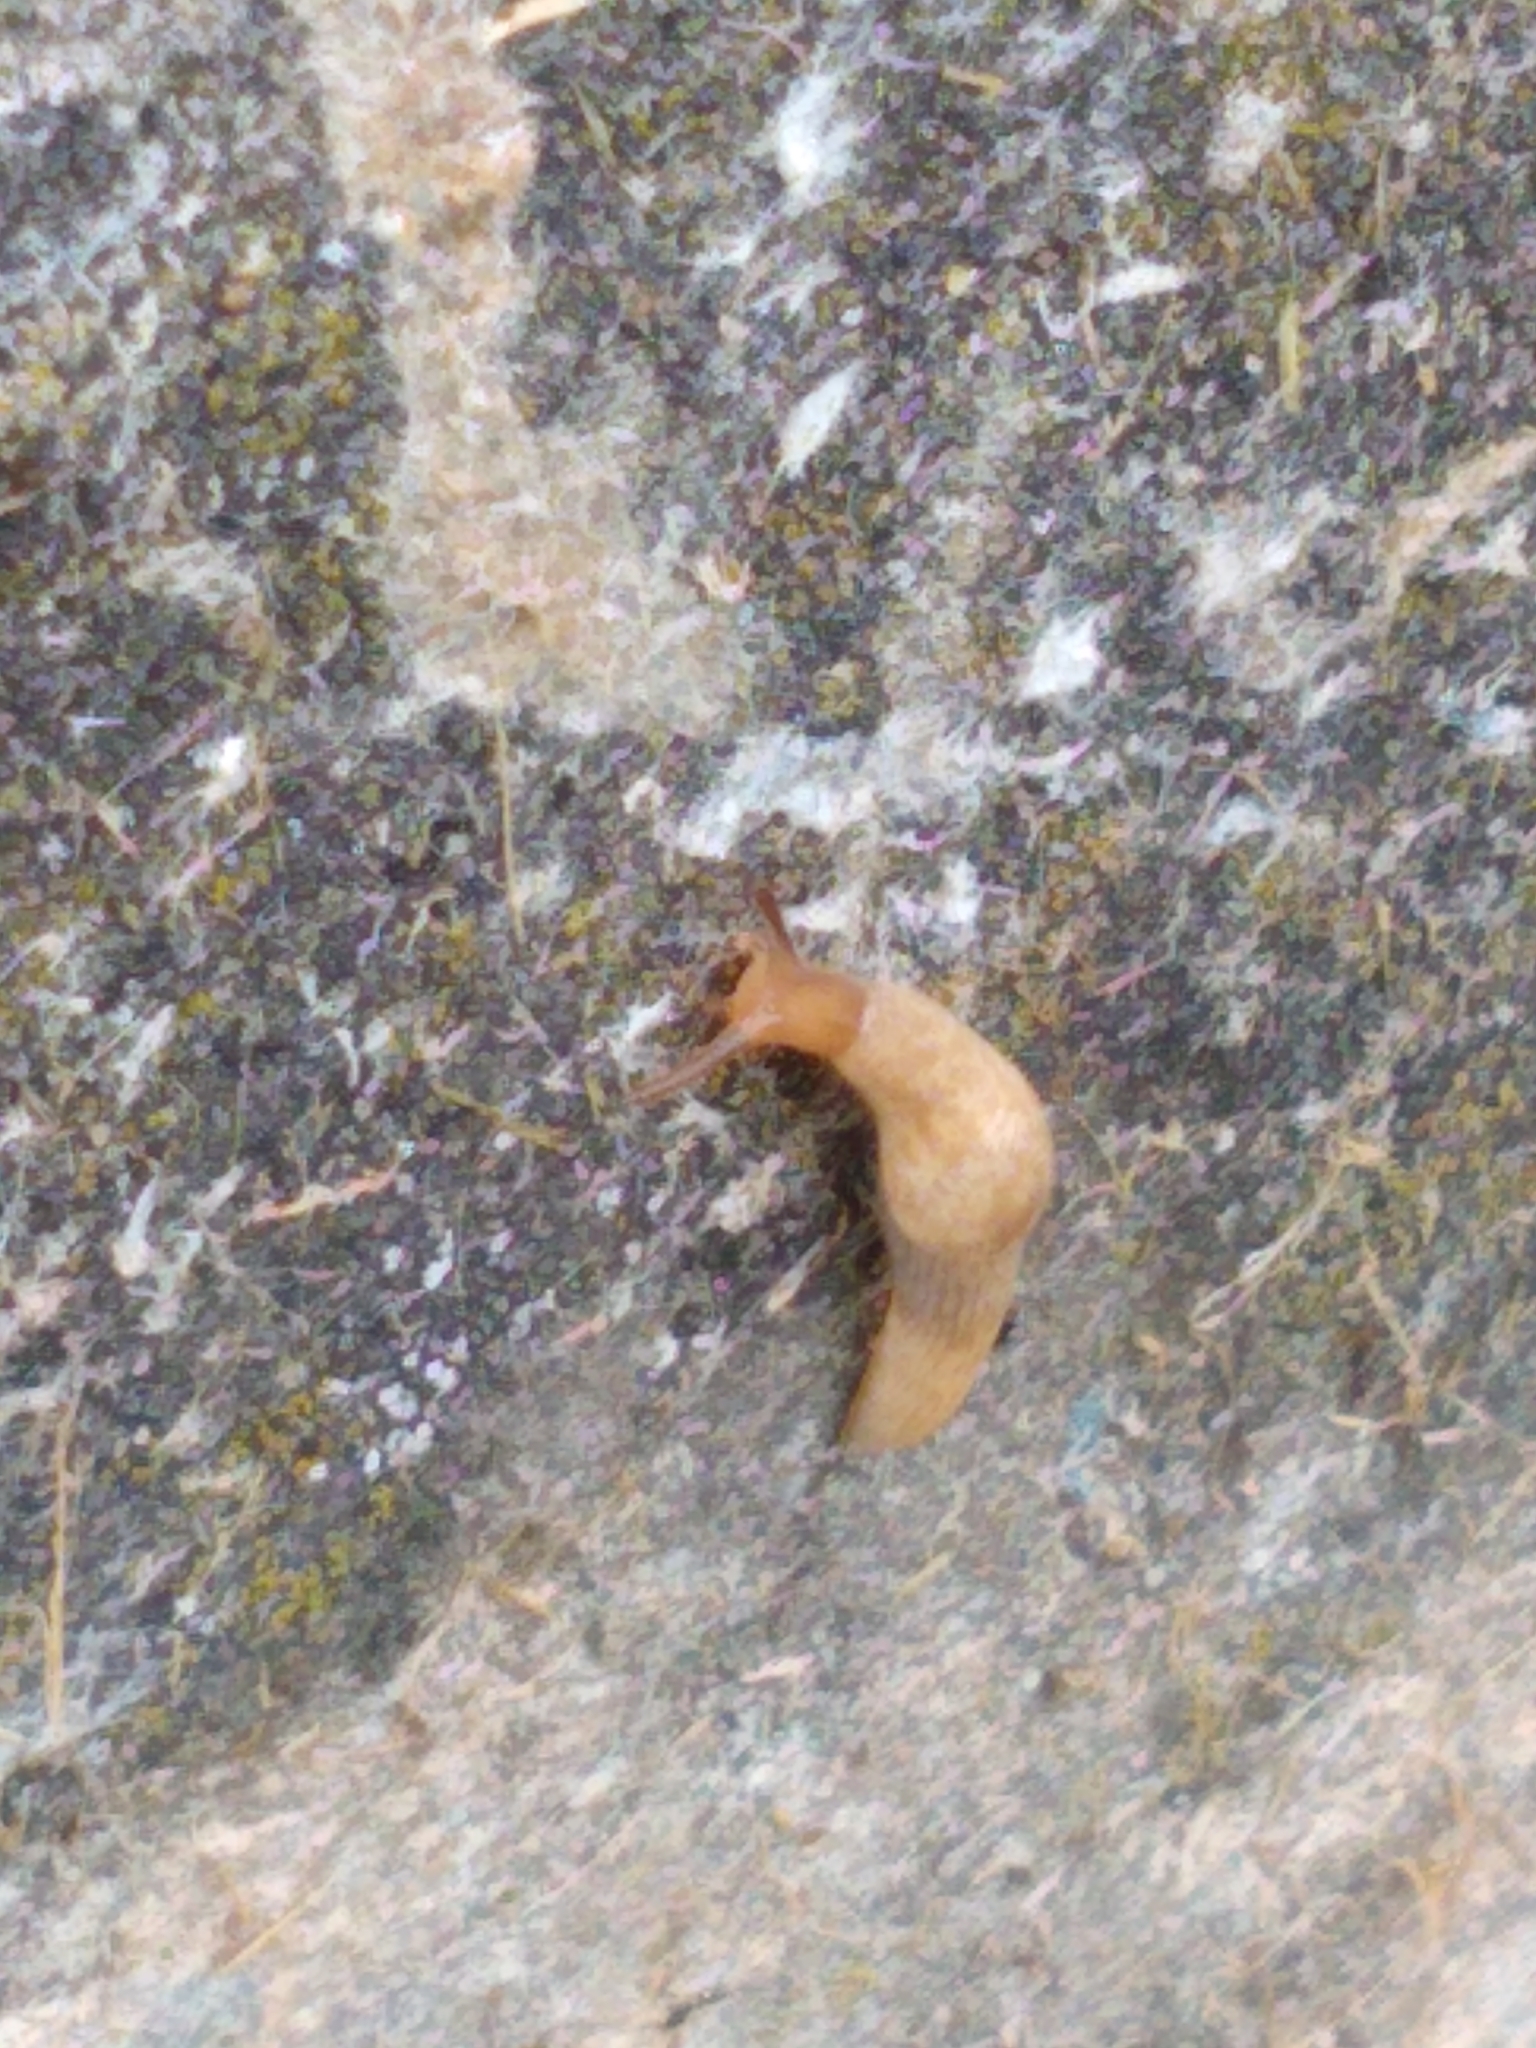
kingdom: Animalia
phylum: Mollusca
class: Gastropoda
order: Stylommatophora
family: Agriolimacidae
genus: Deroceras
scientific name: Deroceras reticulatum
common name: Gray field slug
